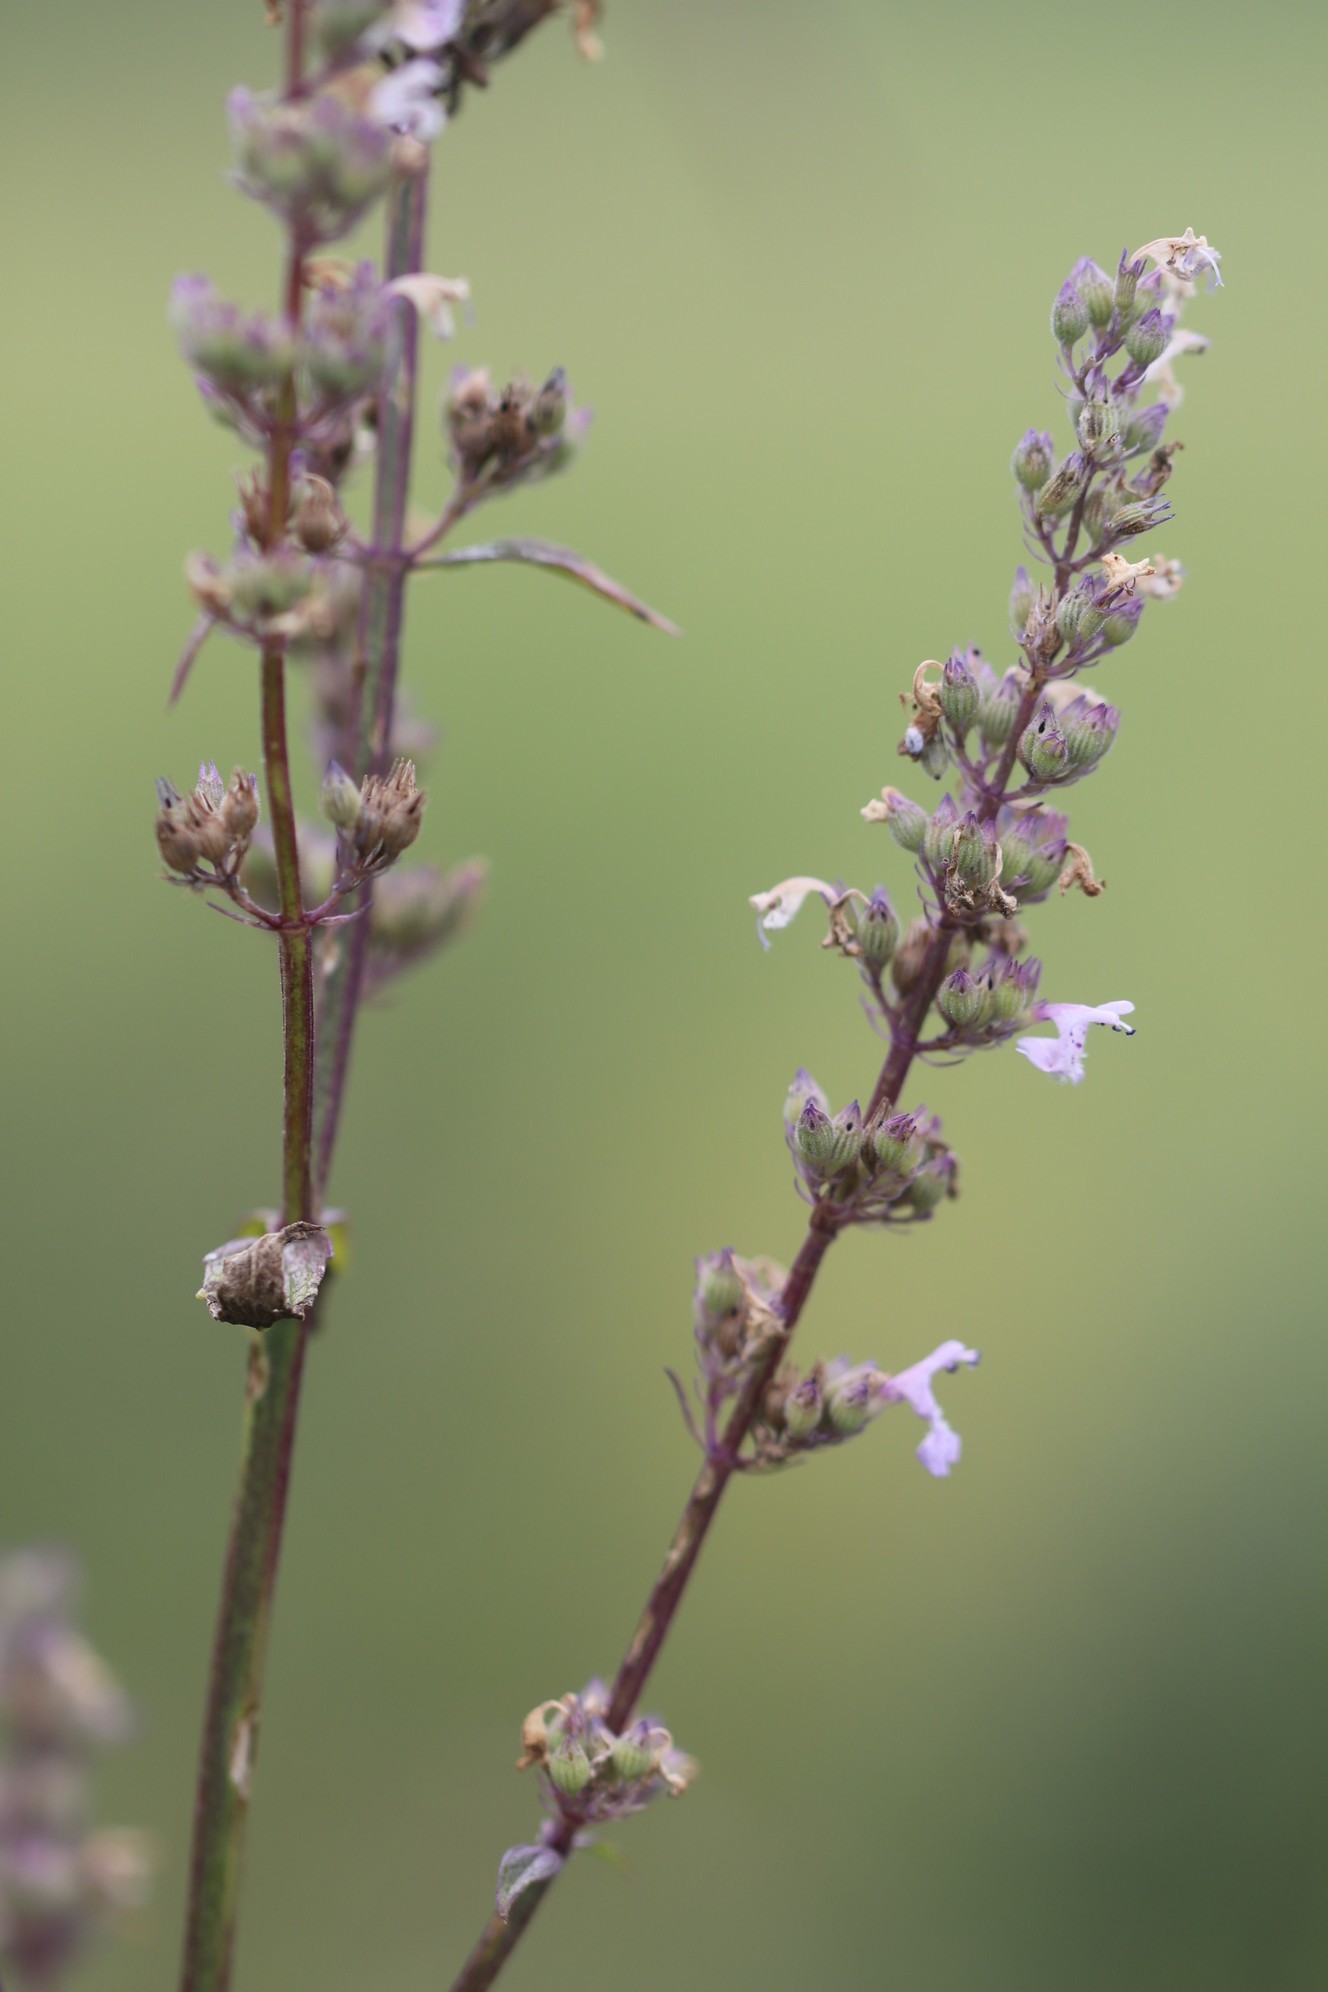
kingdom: Plantae
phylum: Tracheophyta
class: Magnoliopsida
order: Lamiales
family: Lamiaceae
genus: Nepeta
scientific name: Nepeta nuda
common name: Hairless catmint
